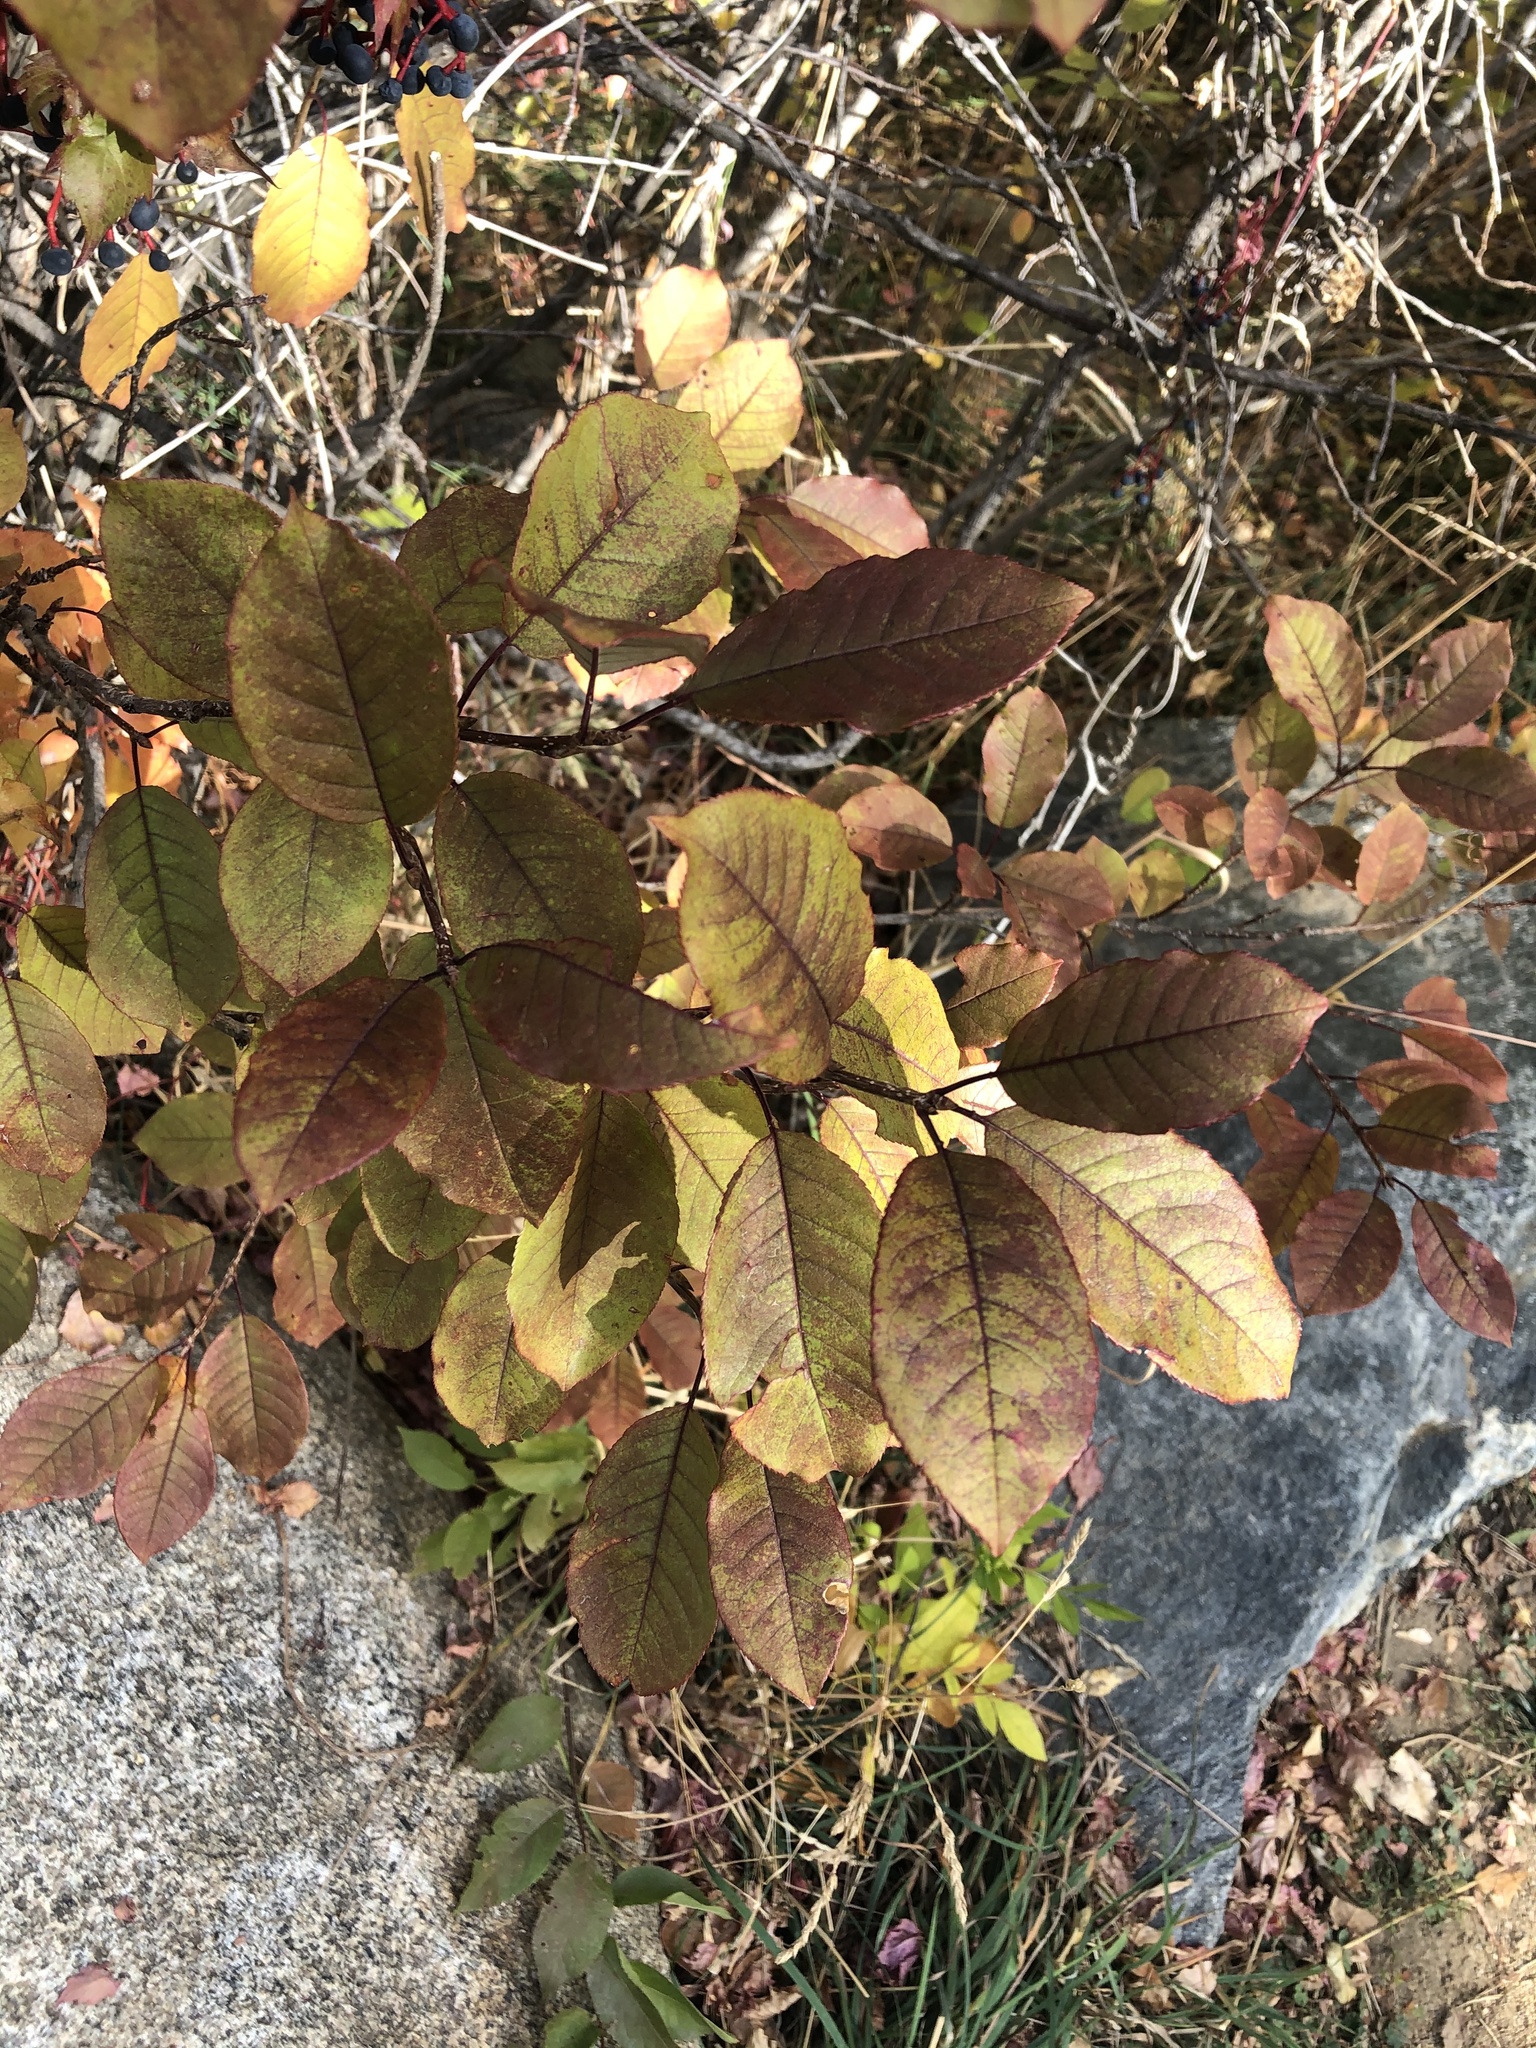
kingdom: Plantae
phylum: Tracheophyta
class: Magnoliopsida
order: Rosales
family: Rosaceae
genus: Prunus
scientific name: Prunus virginiana
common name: Chokecherry
